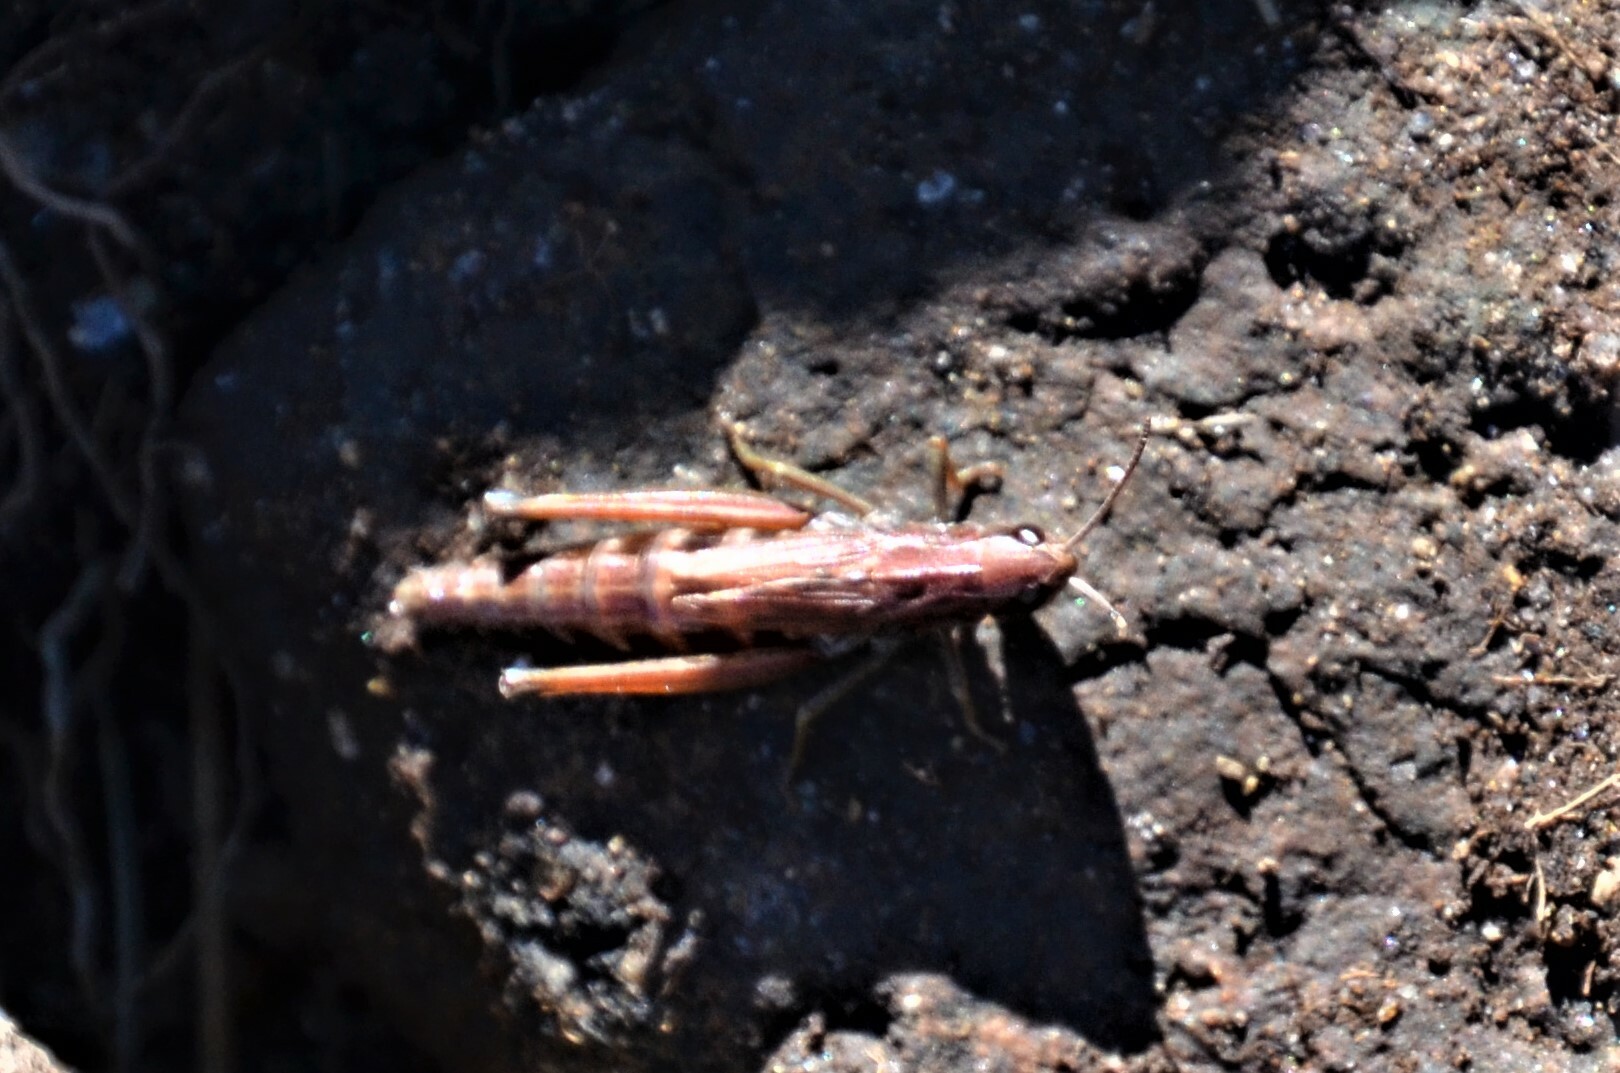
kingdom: Animalia
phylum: Arthropoda
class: Insecta
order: Orthoptera
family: Acrididae
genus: Pseudochorthippus
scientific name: Pseudochorthippus parallelus
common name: Meadow grasshopper
